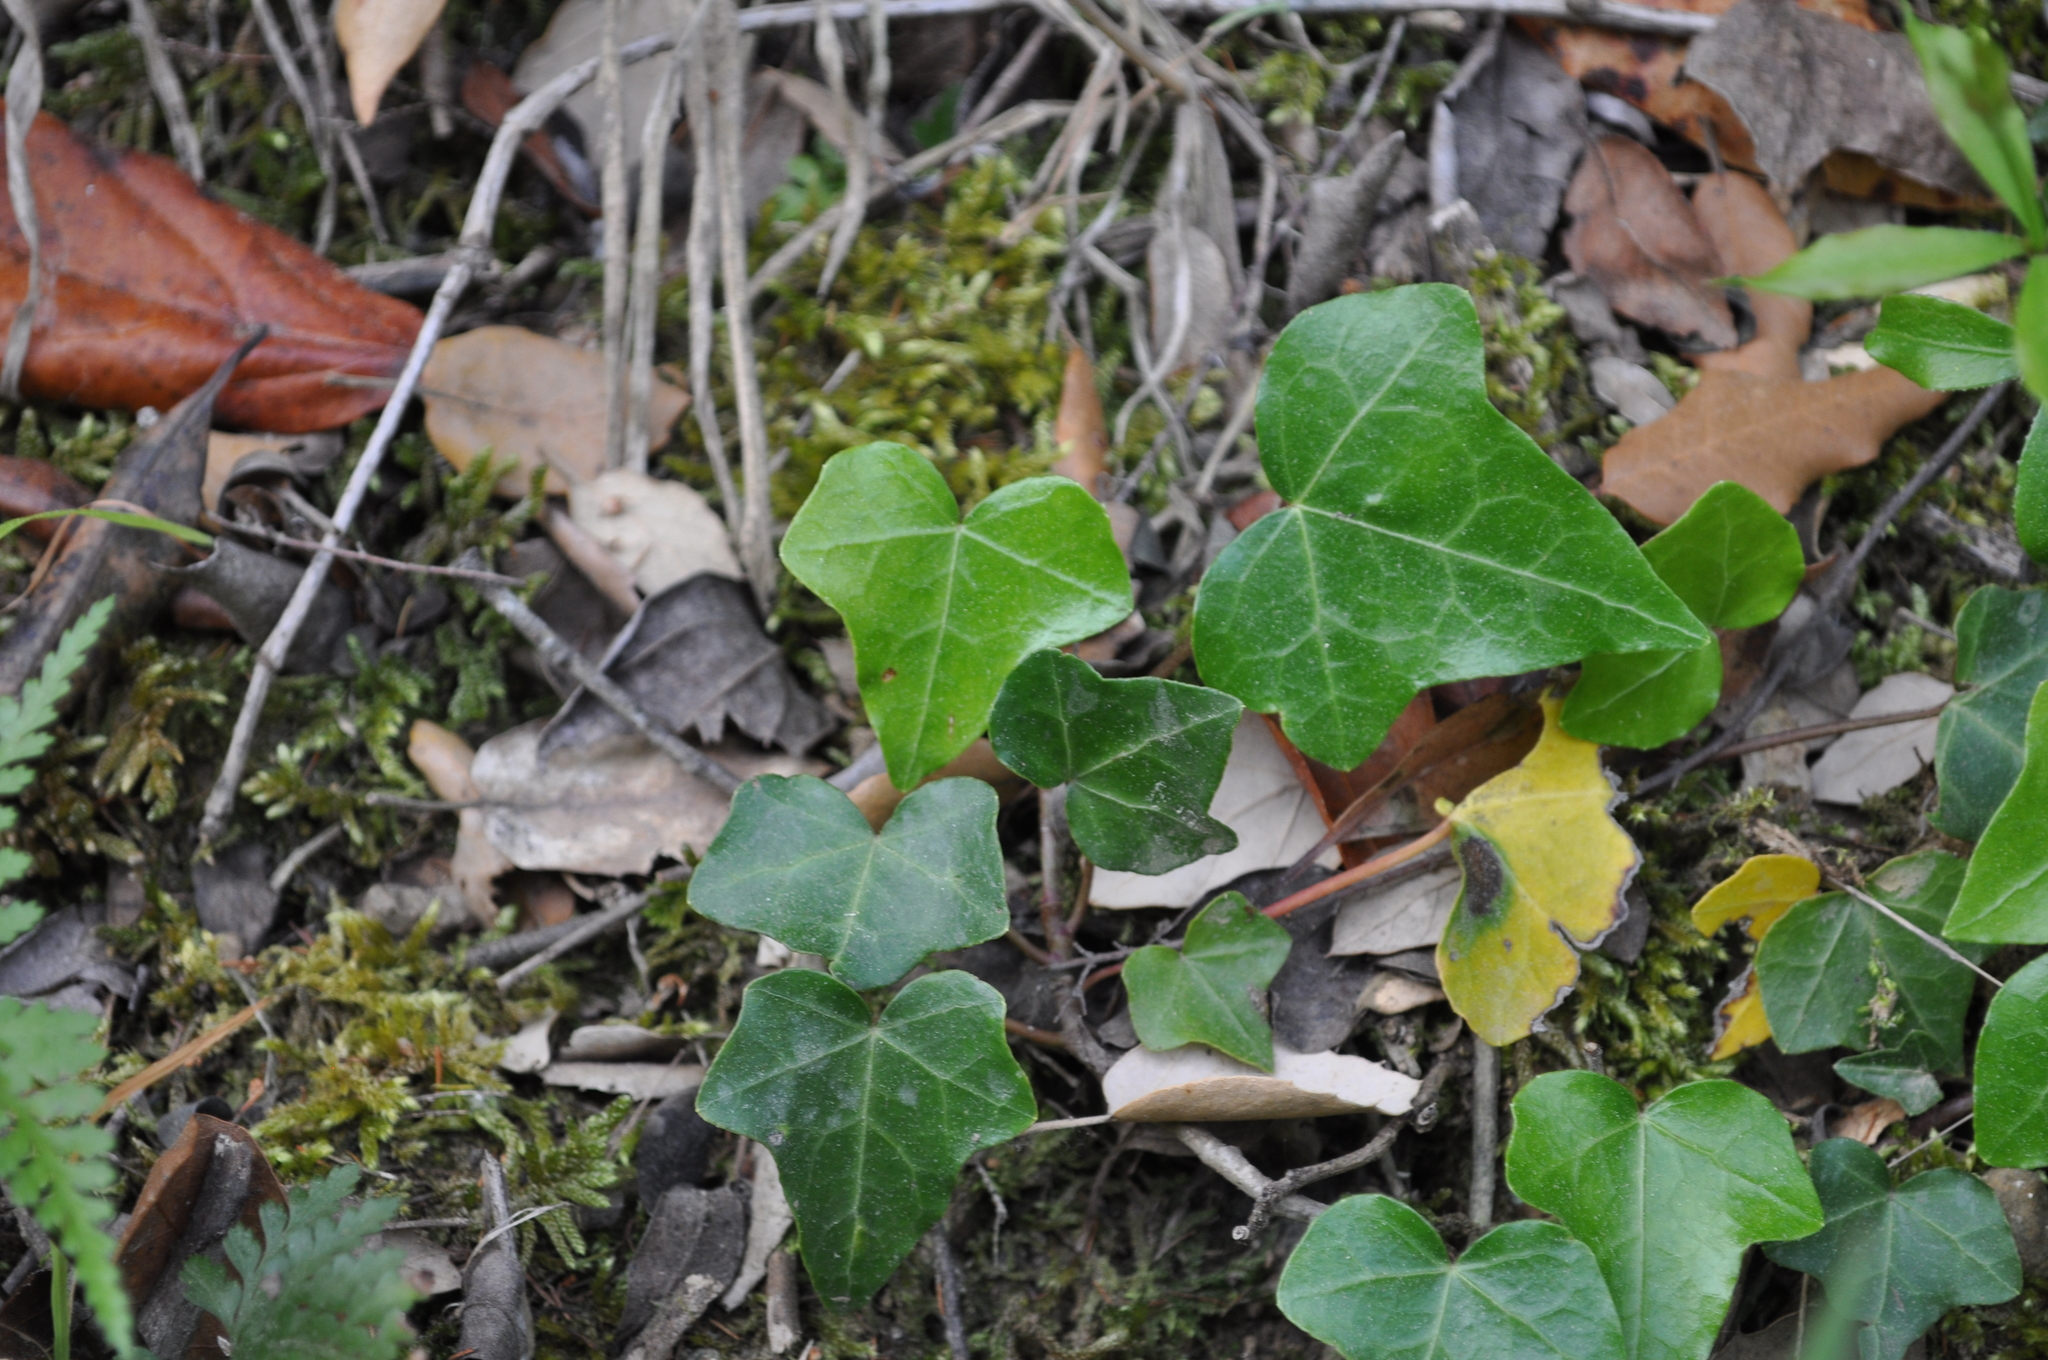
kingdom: Plantae
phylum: Tracheophyta
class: Magnoliopsida
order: Apiales
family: Araliaceae
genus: Hedera
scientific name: Hedera helix
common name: Ivy
